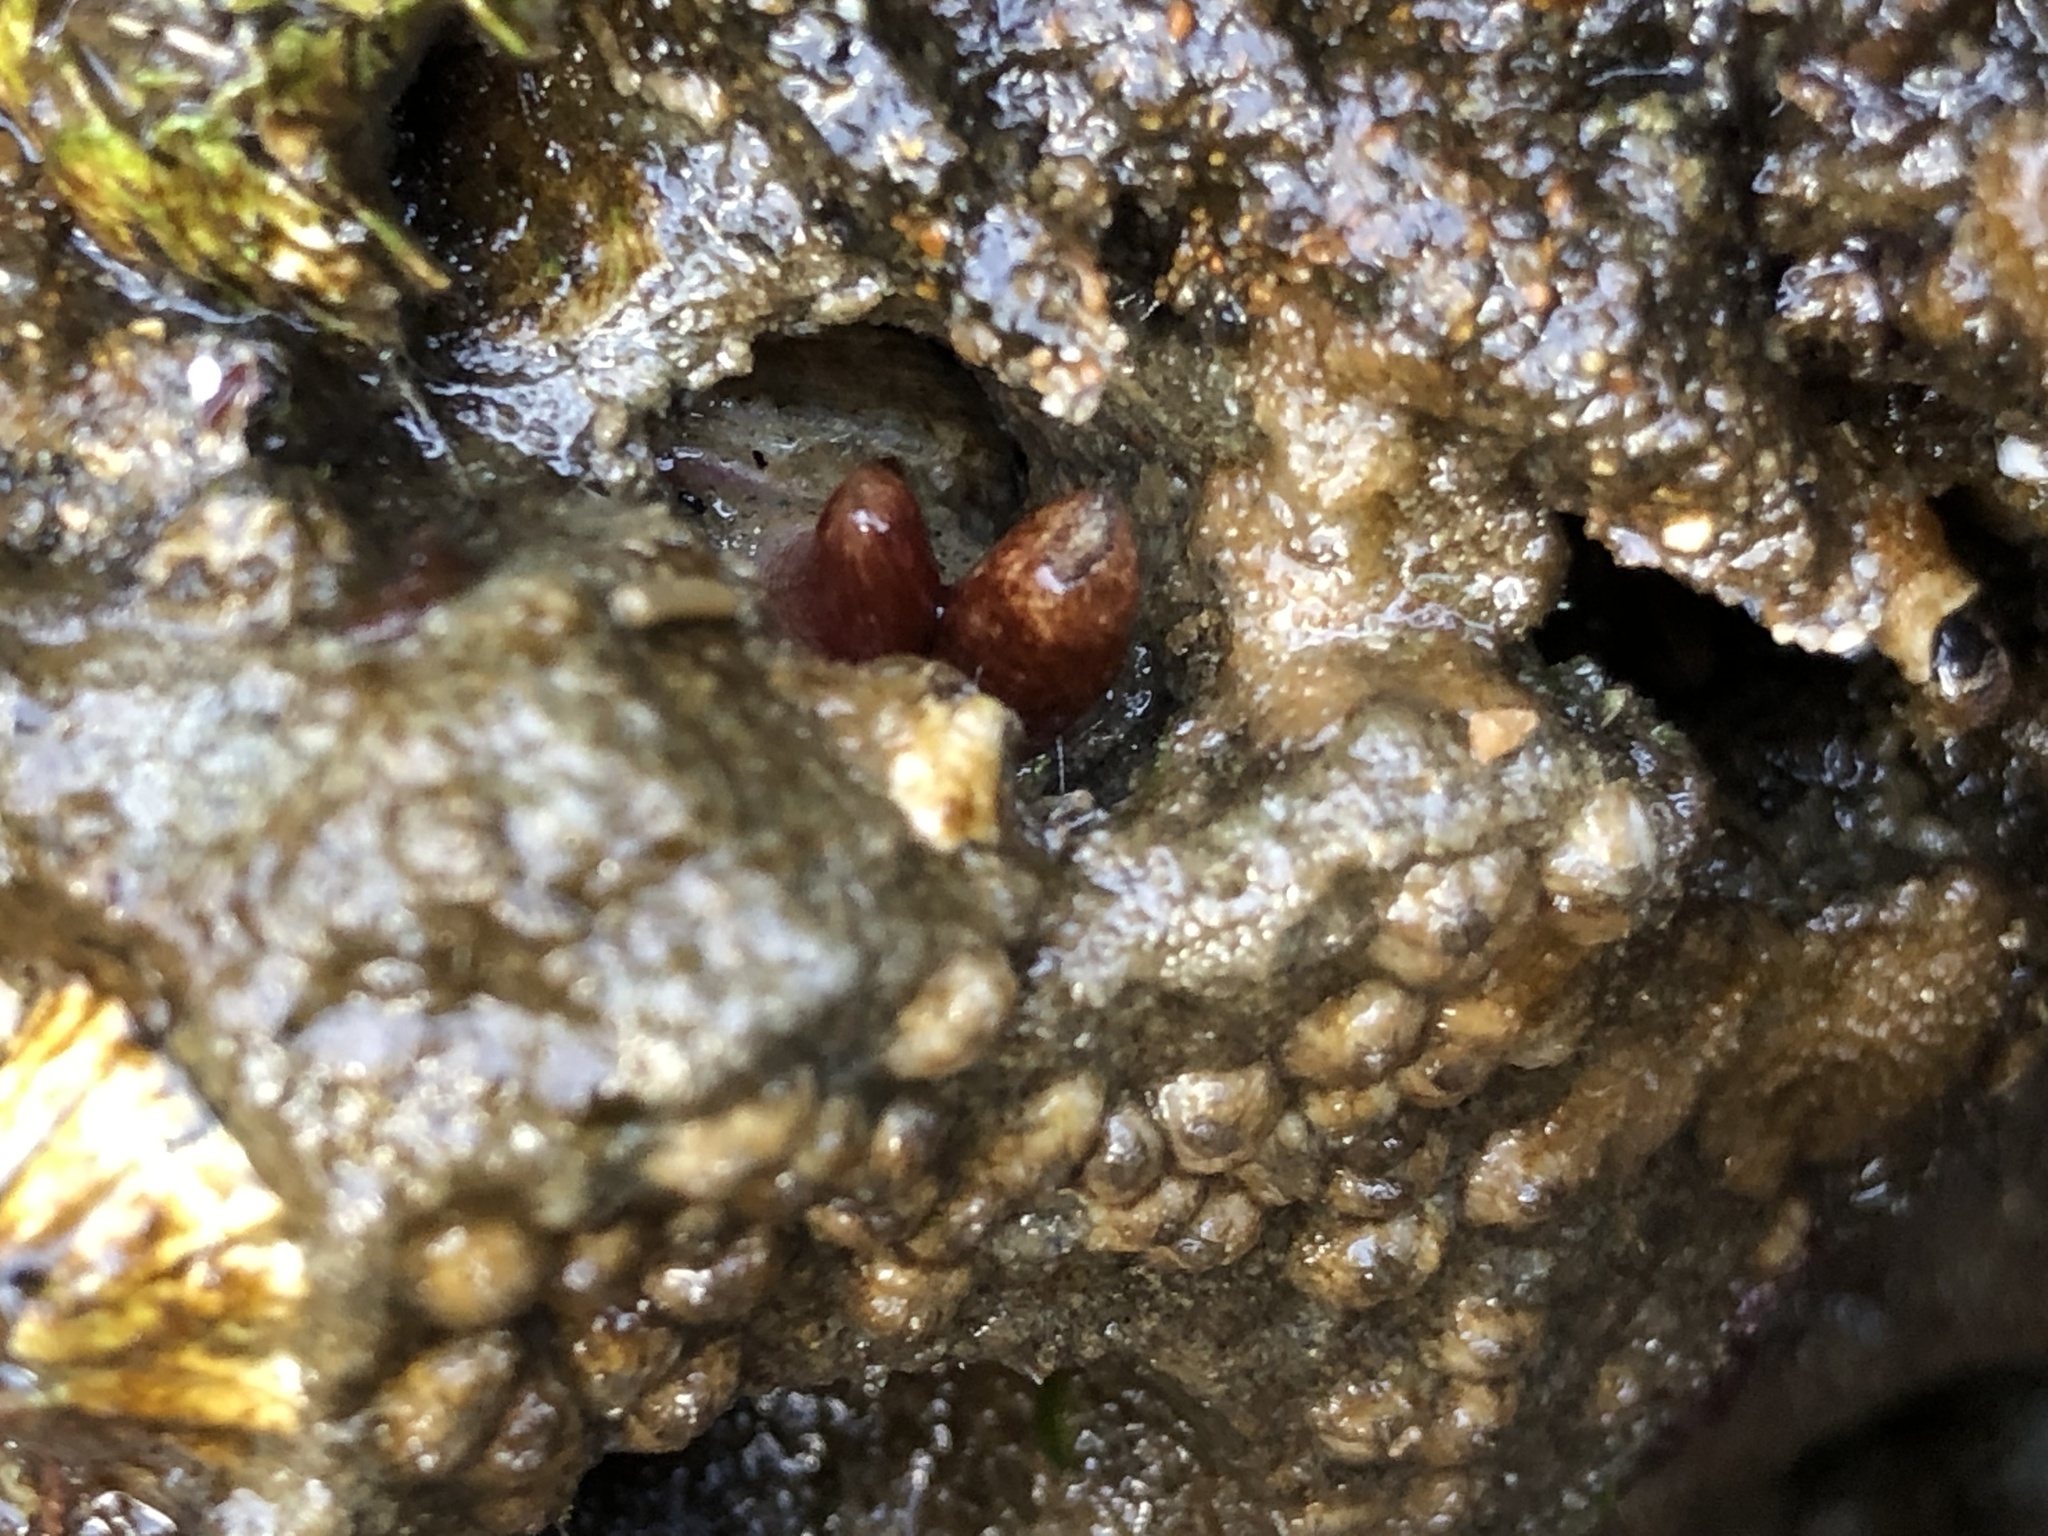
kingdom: Animalia
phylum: Mollusca
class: Bivalvia
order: Adapedonta
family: Hiatellidae
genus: Hiatella
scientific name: Hiatella arctica
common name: Arctic hiatella
